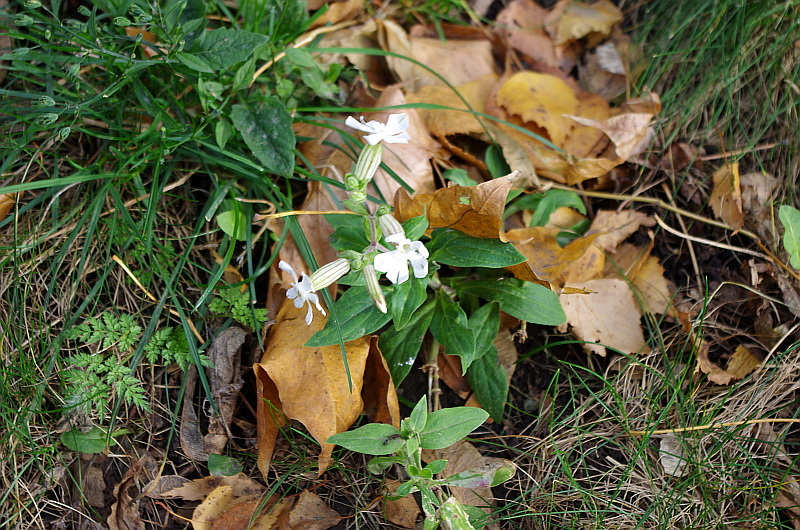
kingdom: Plantae
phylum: Tracheophyta
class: Magnoliopsida
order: Caryophyllales
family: Caryophyllaceae
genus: Silene
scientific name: Silene latifolia
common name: White campion
